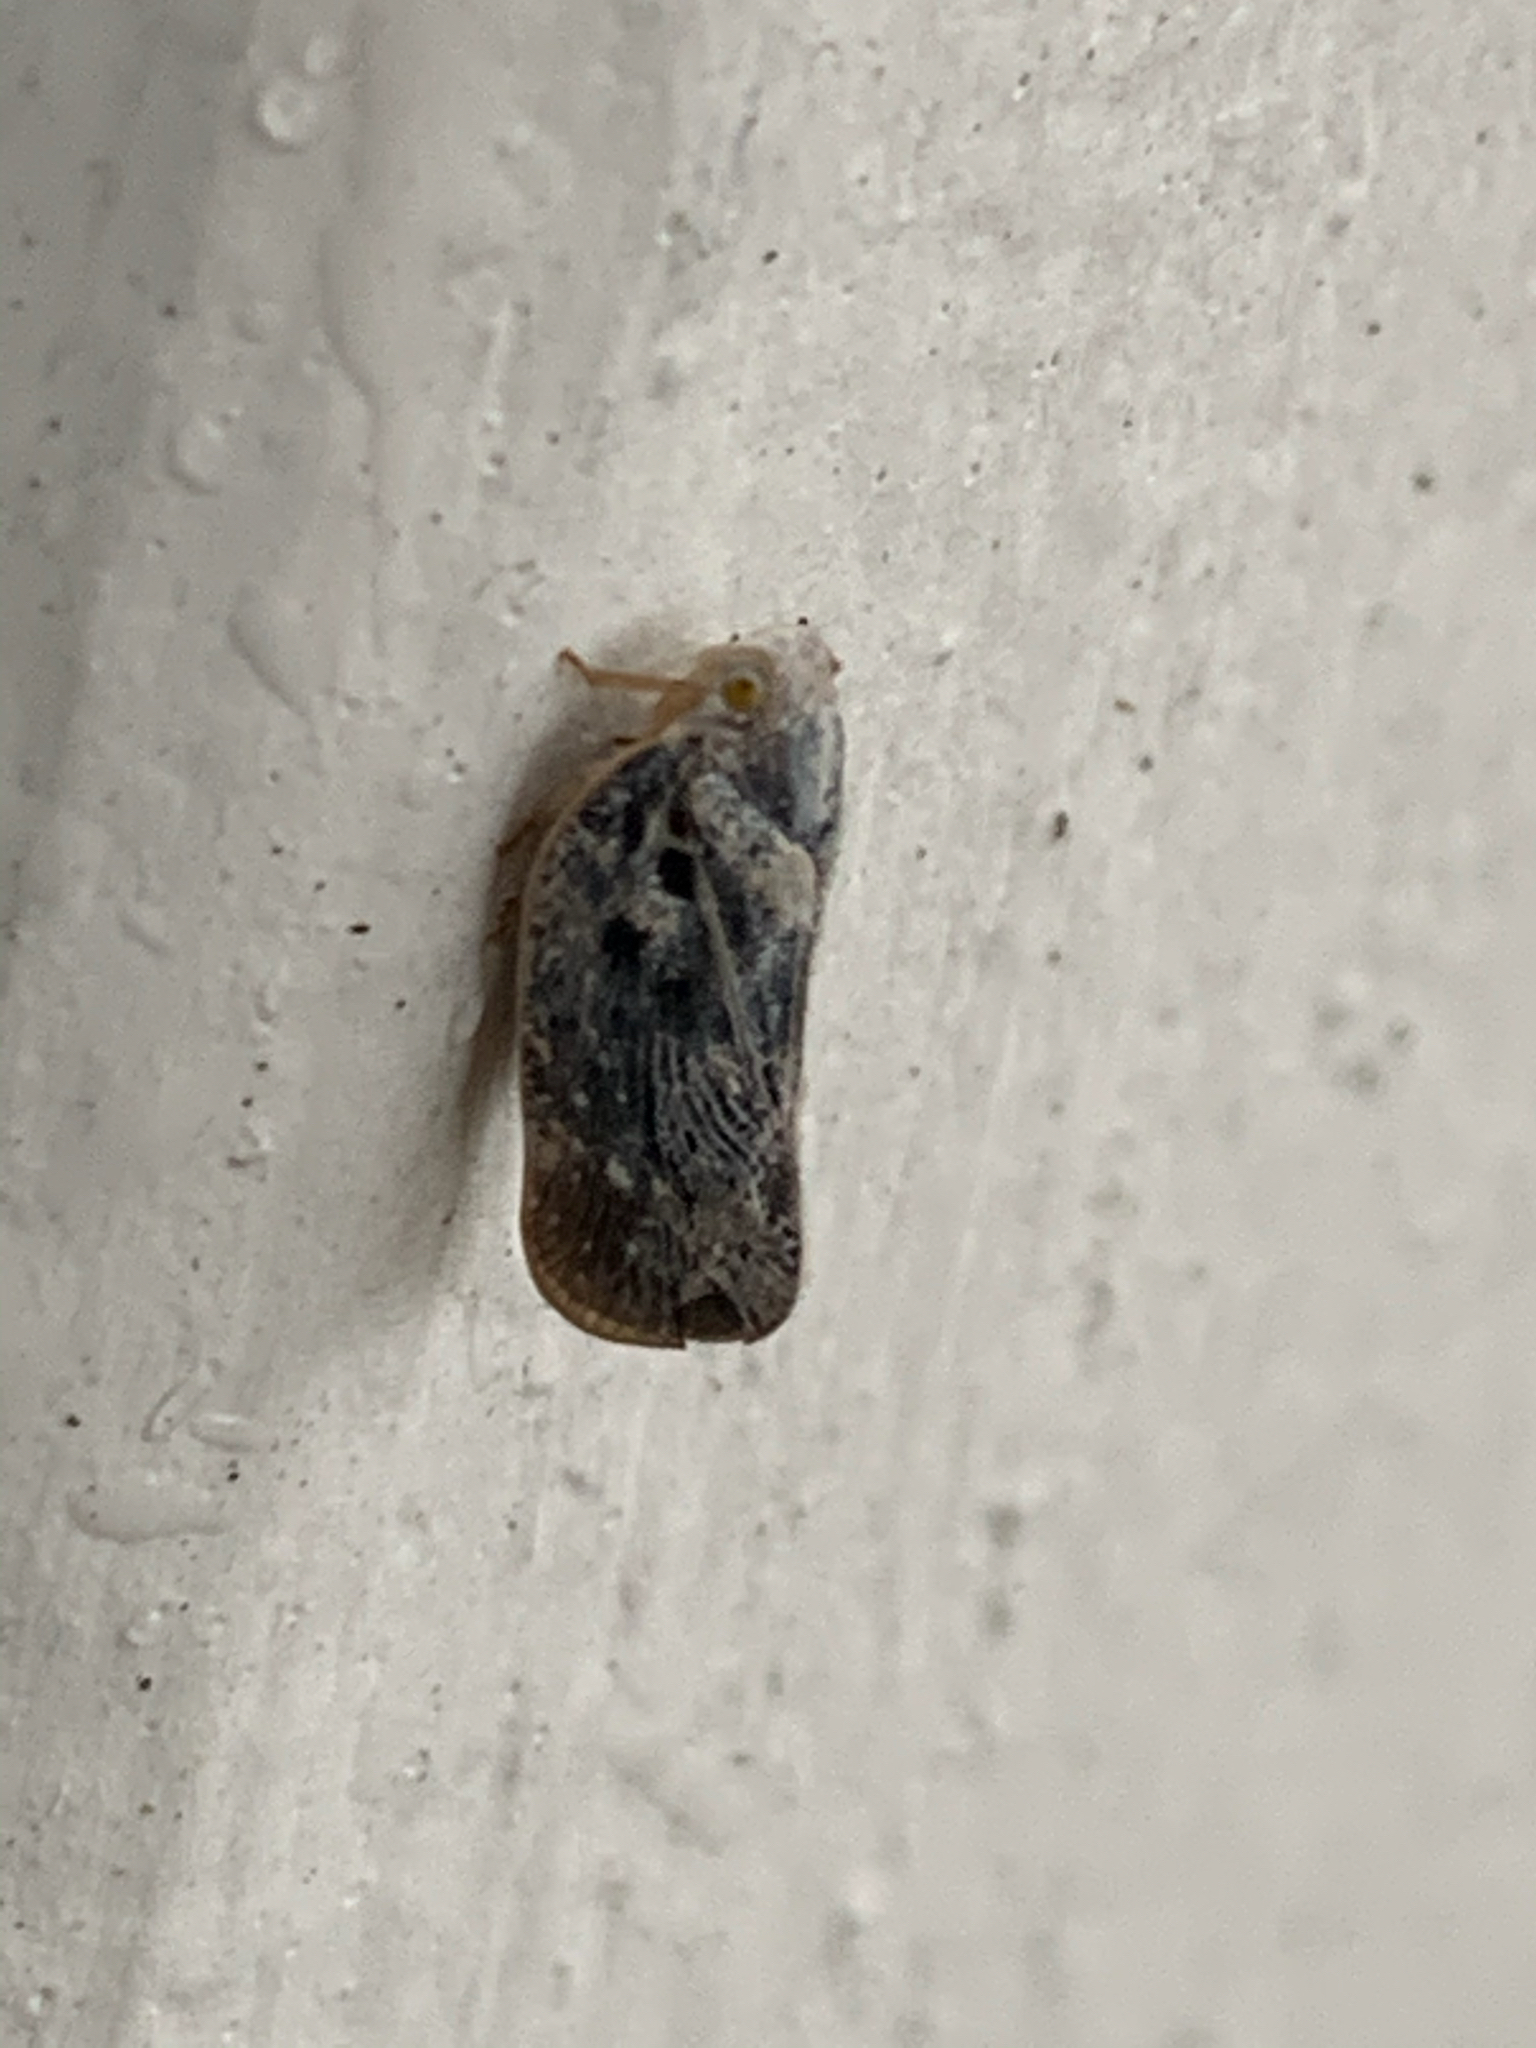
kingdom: Animalia
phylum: Arthropoda
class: Insecta
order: Hemiptera
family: Flatidae
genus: Metcalfa
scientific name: Metcalfa pruinosa
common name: Citrus flatid planthopper
